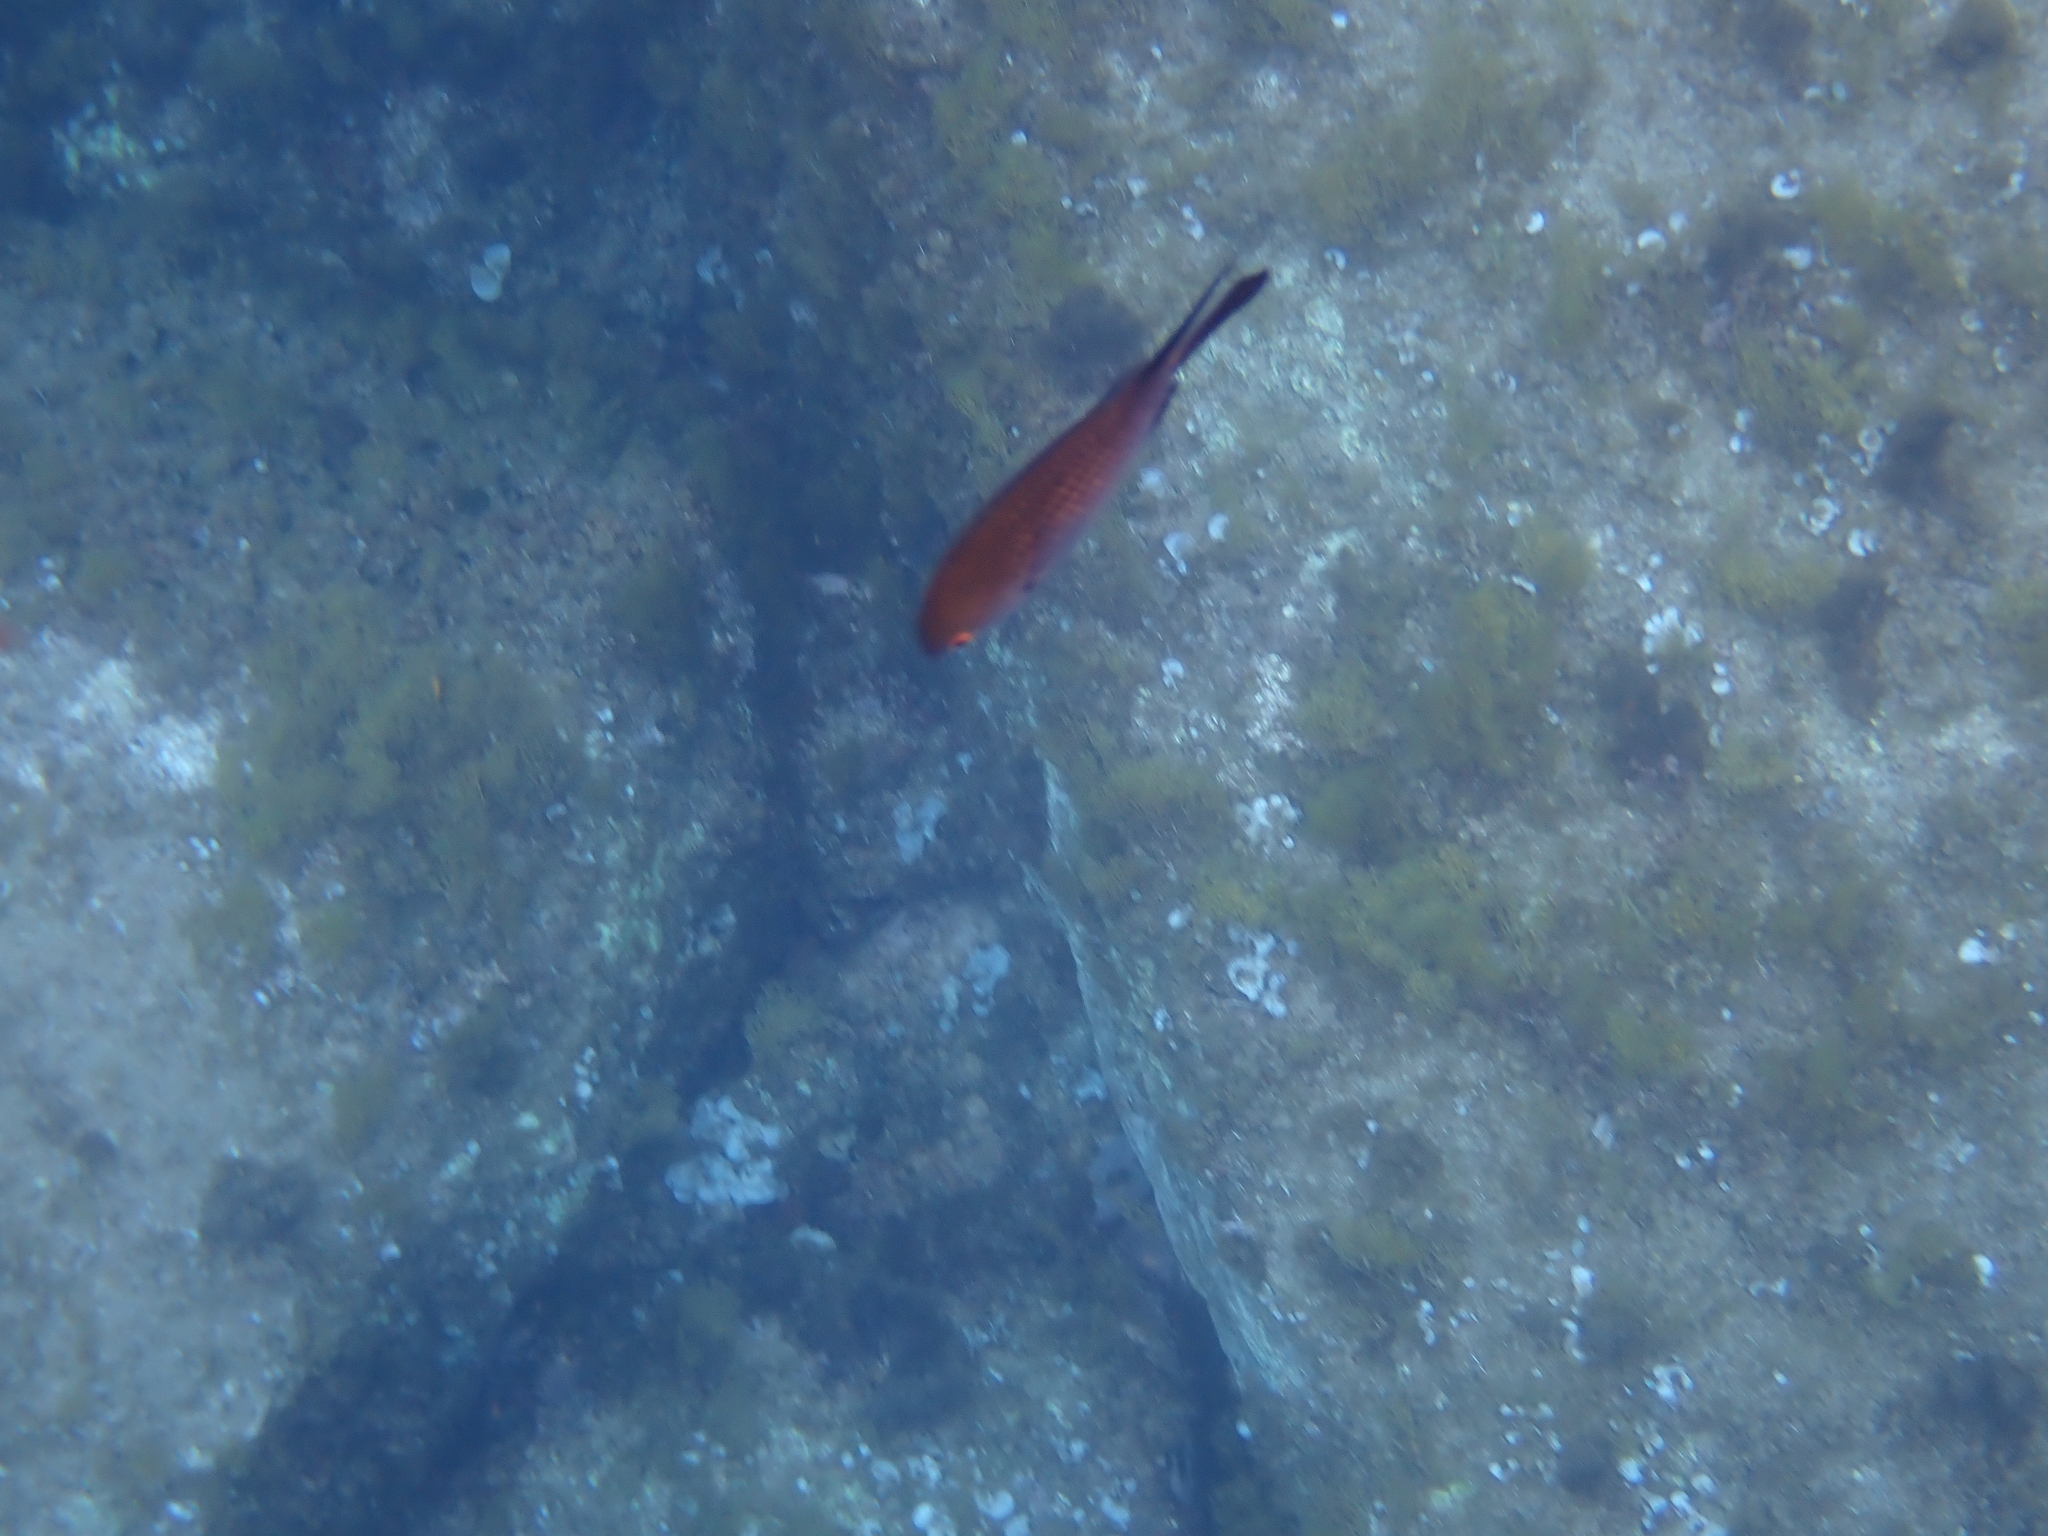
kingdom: Animalia
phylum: Chordata
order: Perciformes
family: Pomacentridae
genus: Chromis
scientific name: Chromis chromis
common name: Damselfish
